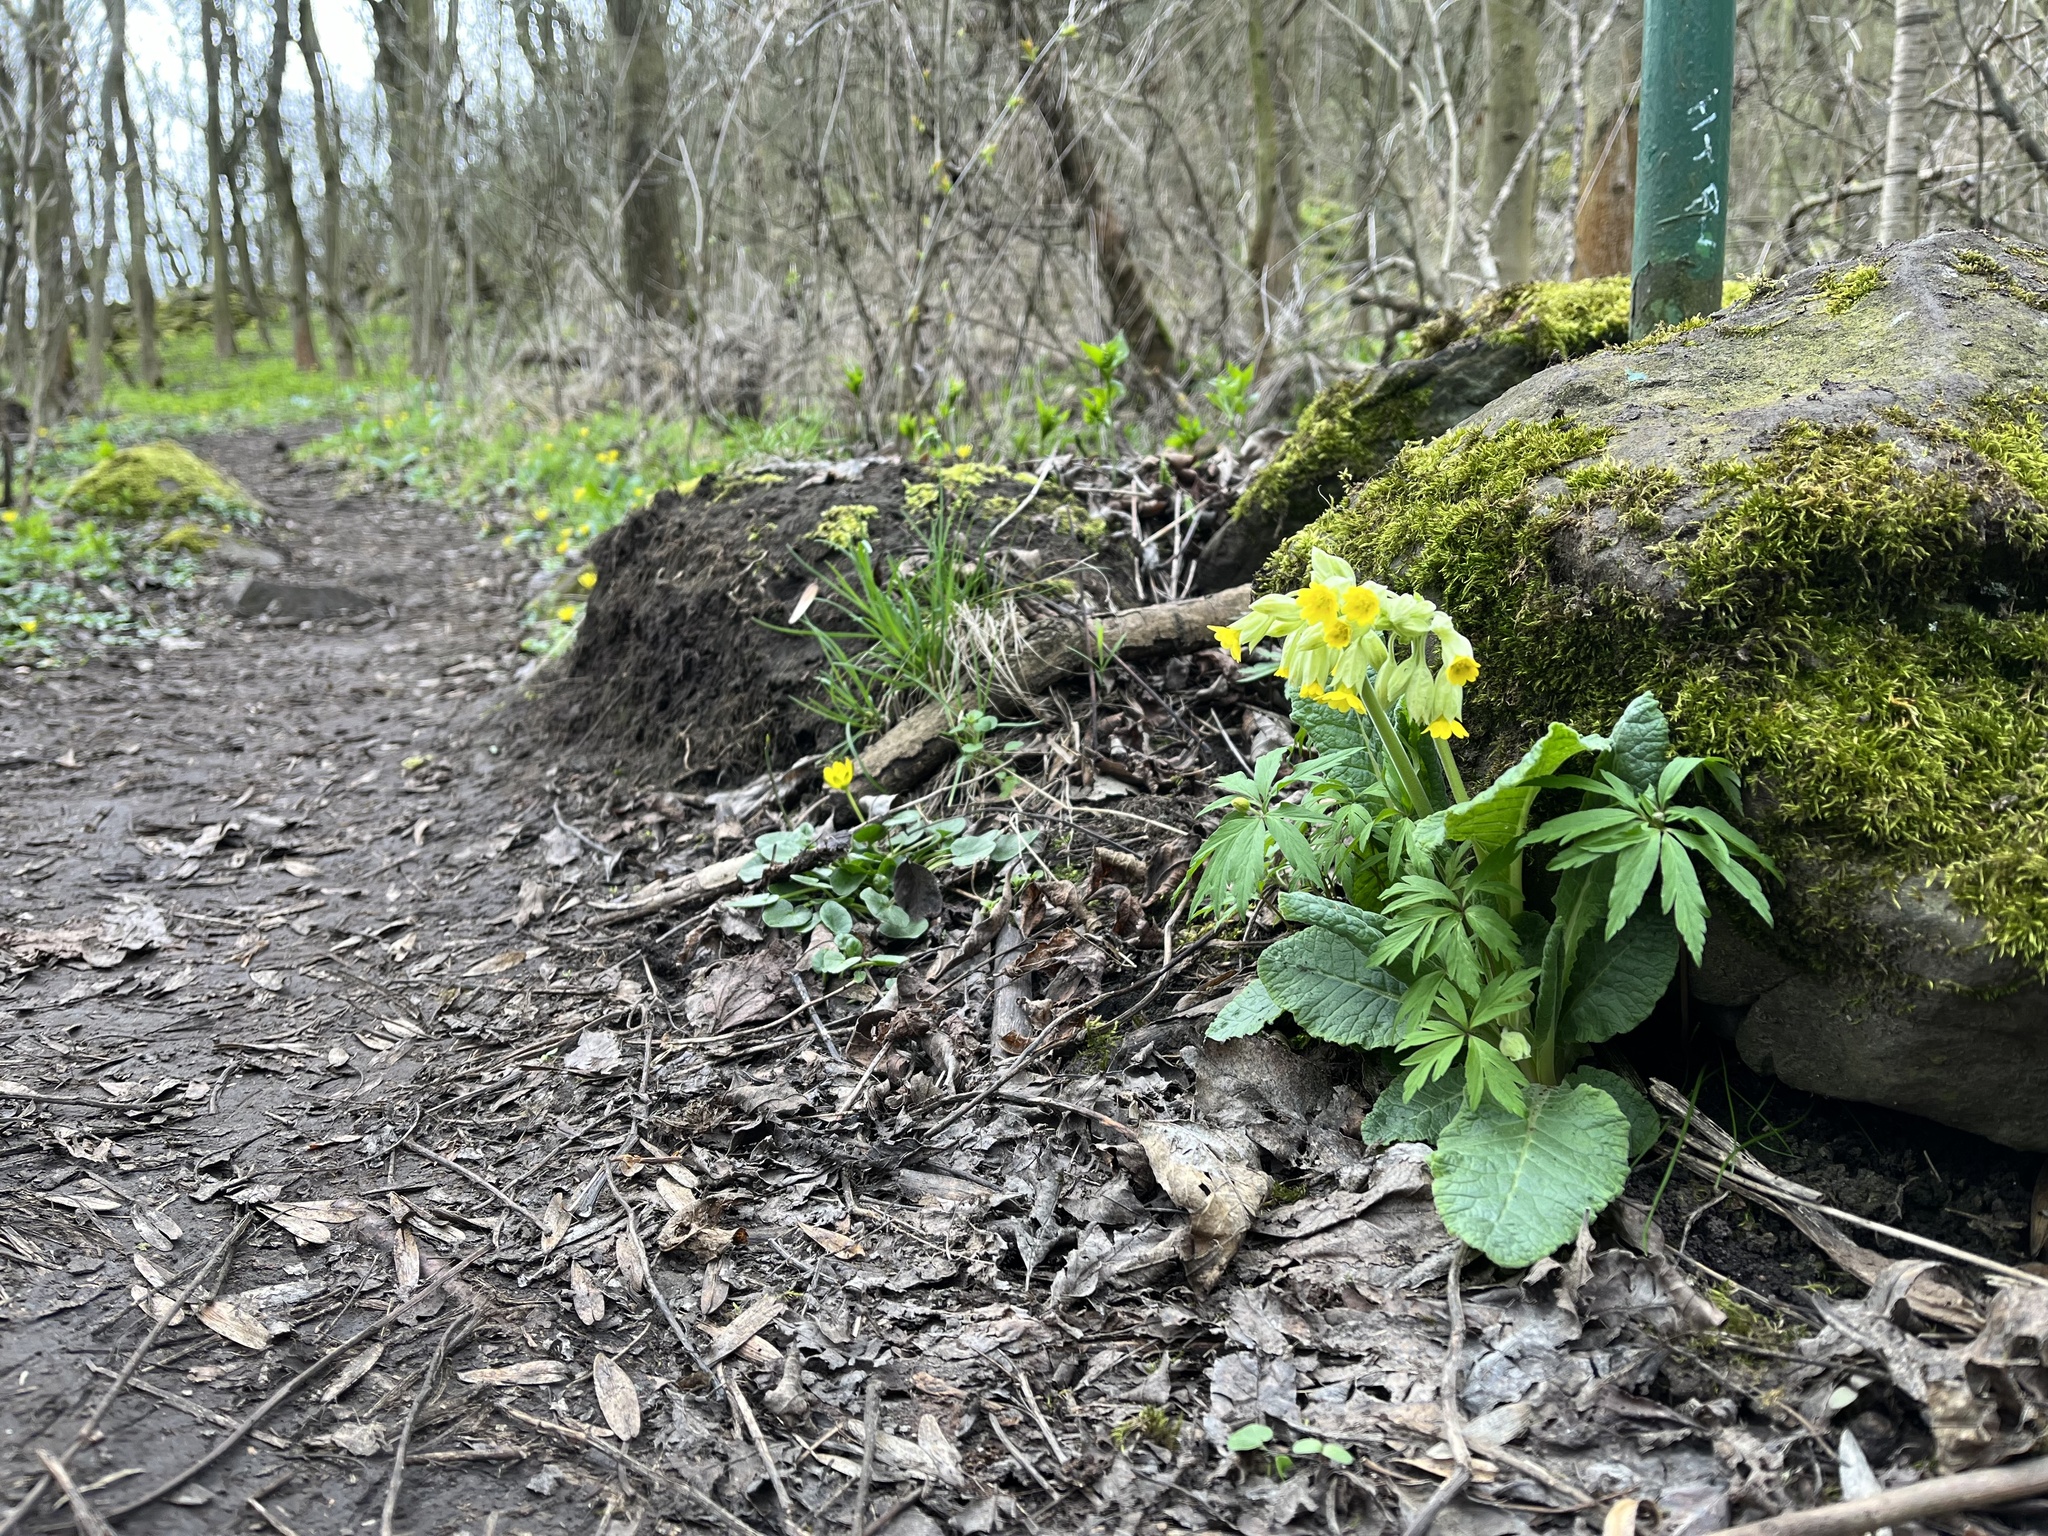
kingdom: Plantae
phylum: Tracheophyta
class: Magnoliopsida
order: Ericales
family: Primulaceae
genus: Primula
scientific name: Primula veris
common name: Cowslip
